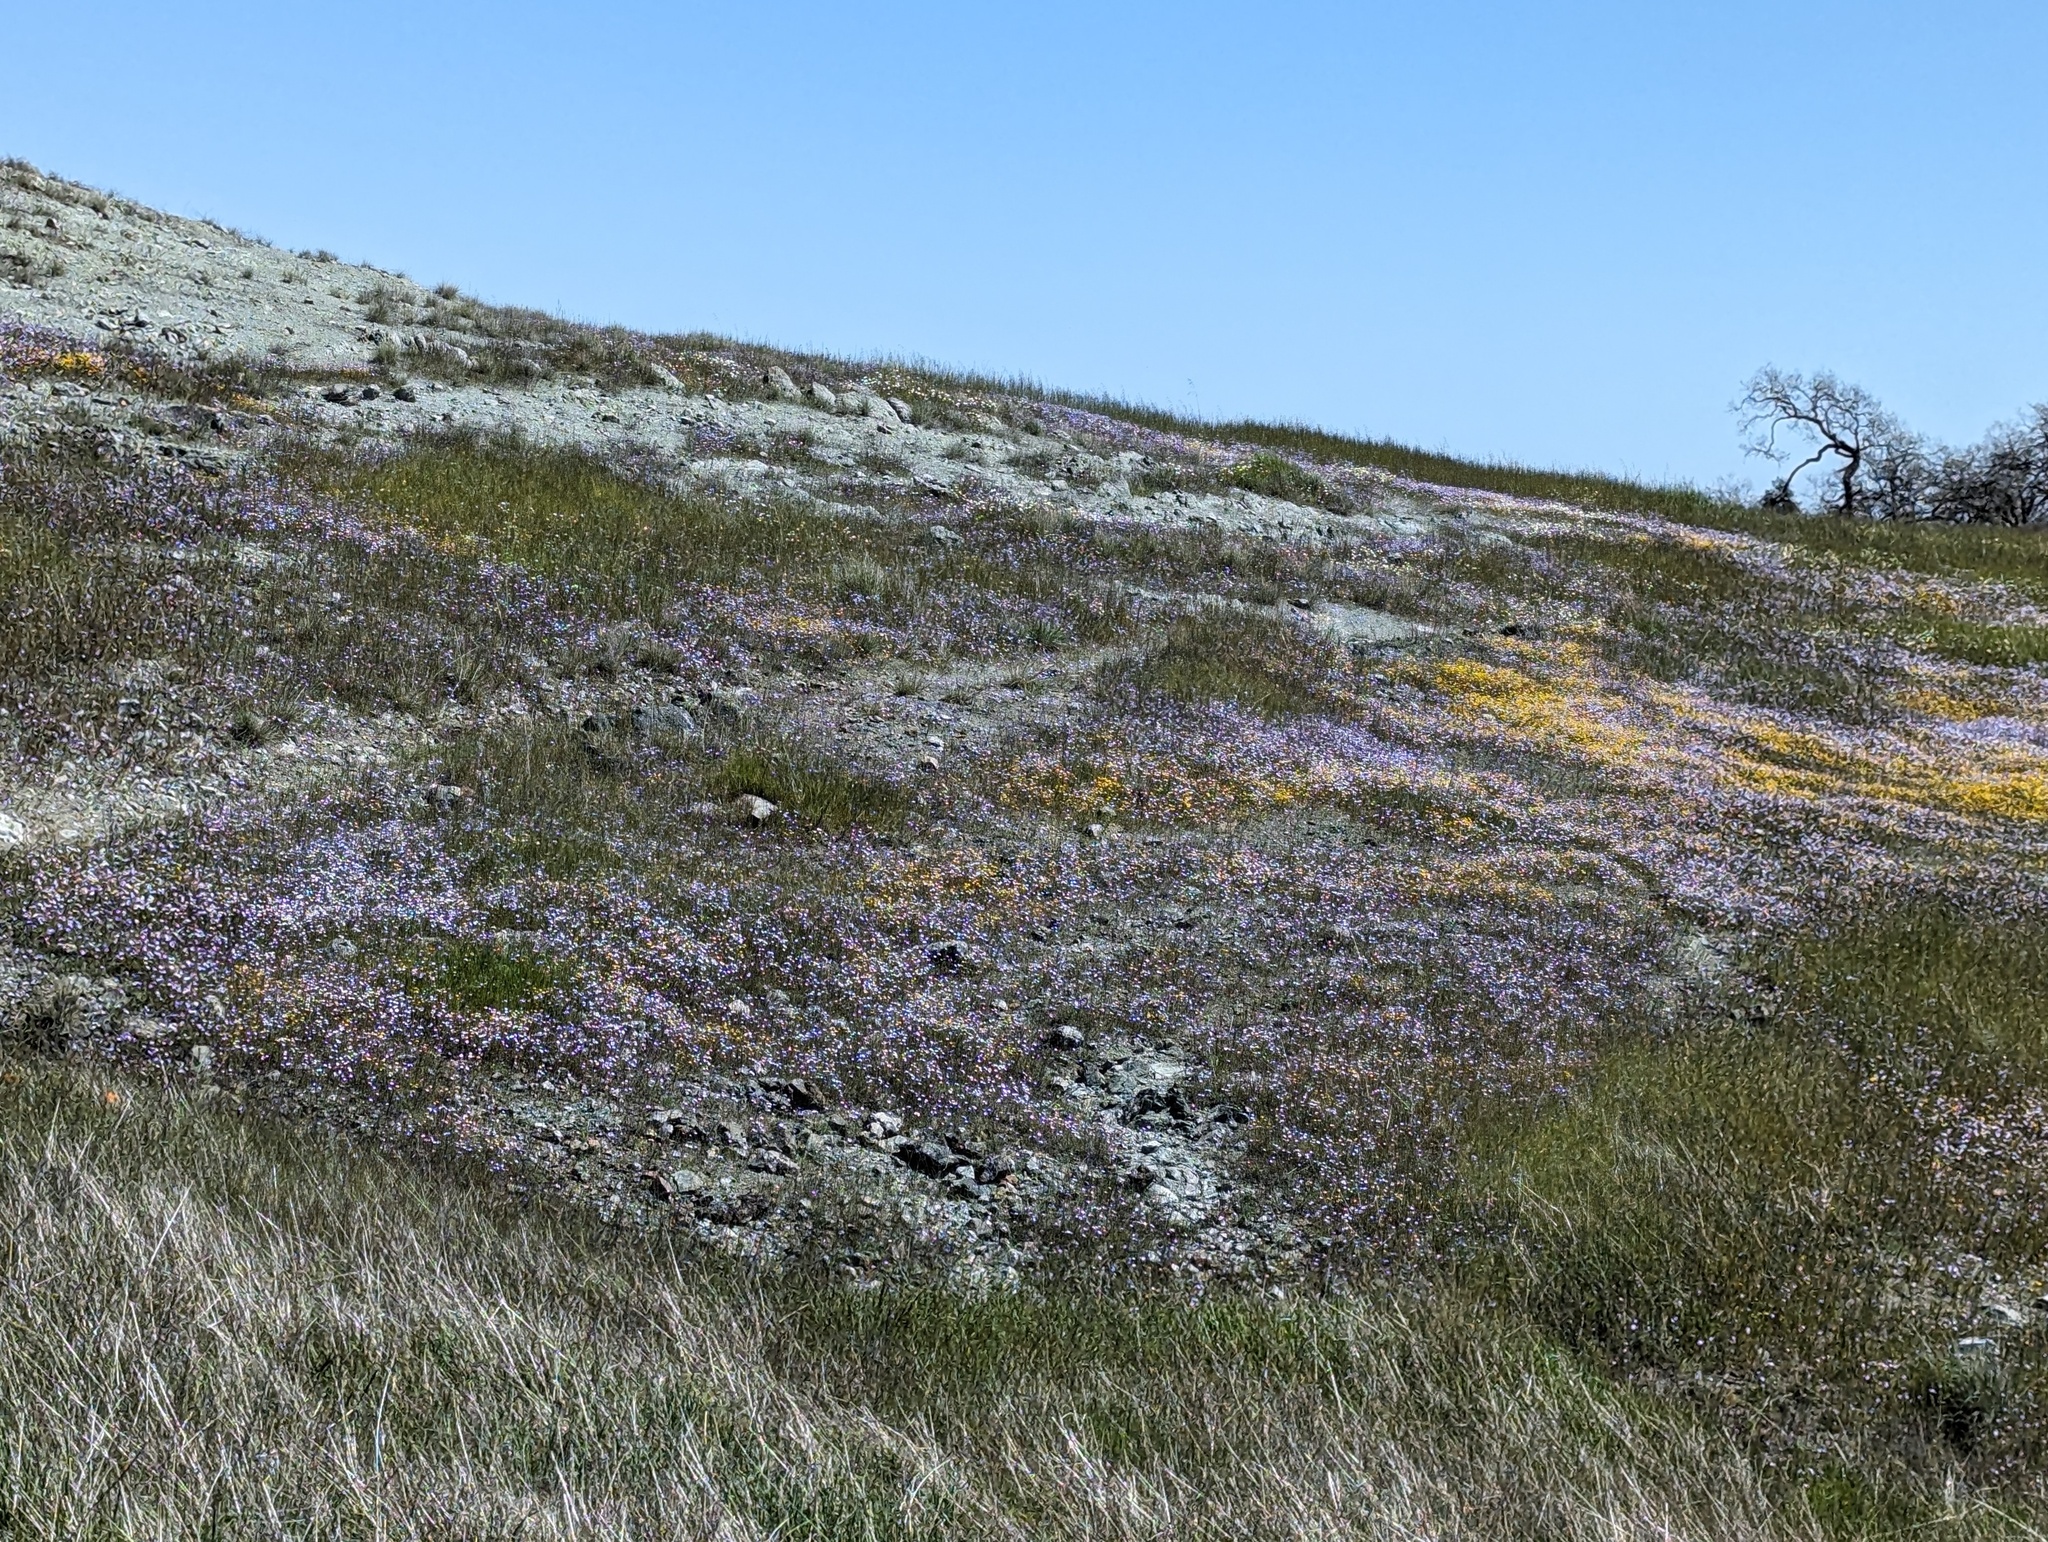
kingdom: Plantae
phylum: Tracheophyta
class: Magnoliopsida
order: Ericales
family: Polemoniaceae
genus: Gilia
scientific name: Gilia tricolor
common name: Bird's-eyes
